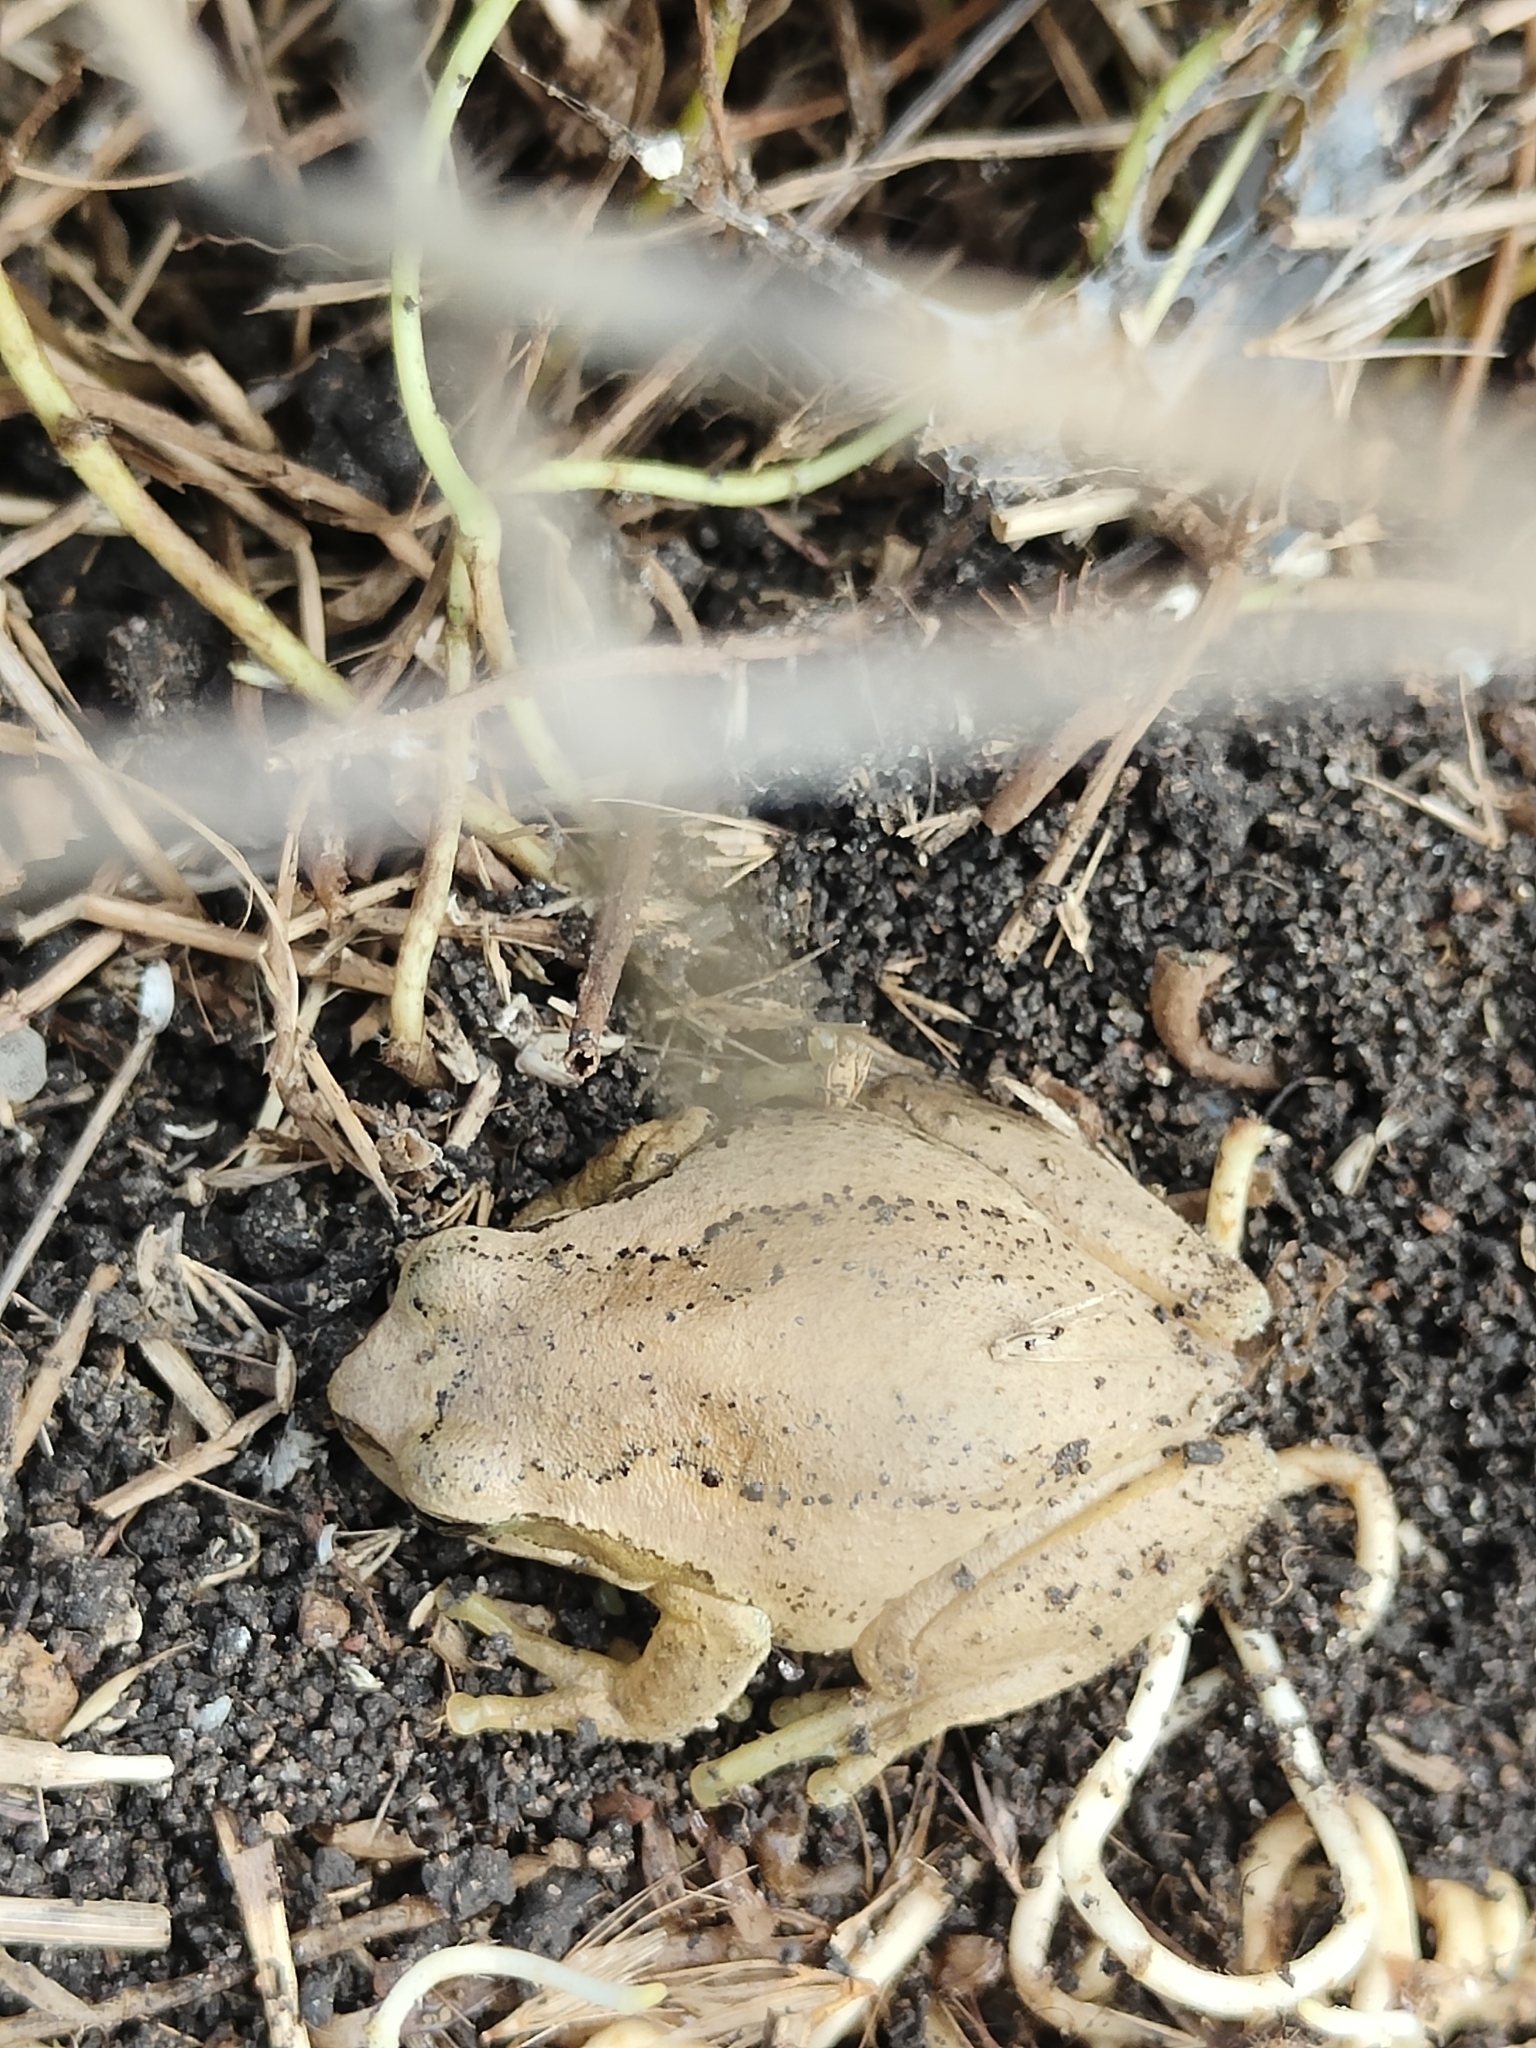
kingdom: Animalia
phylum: Chordata
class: Amphibia
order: Anura
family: Pelodryadidae
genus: Litoria
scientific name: Litoria ewingii
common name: Southern brown tree frog
